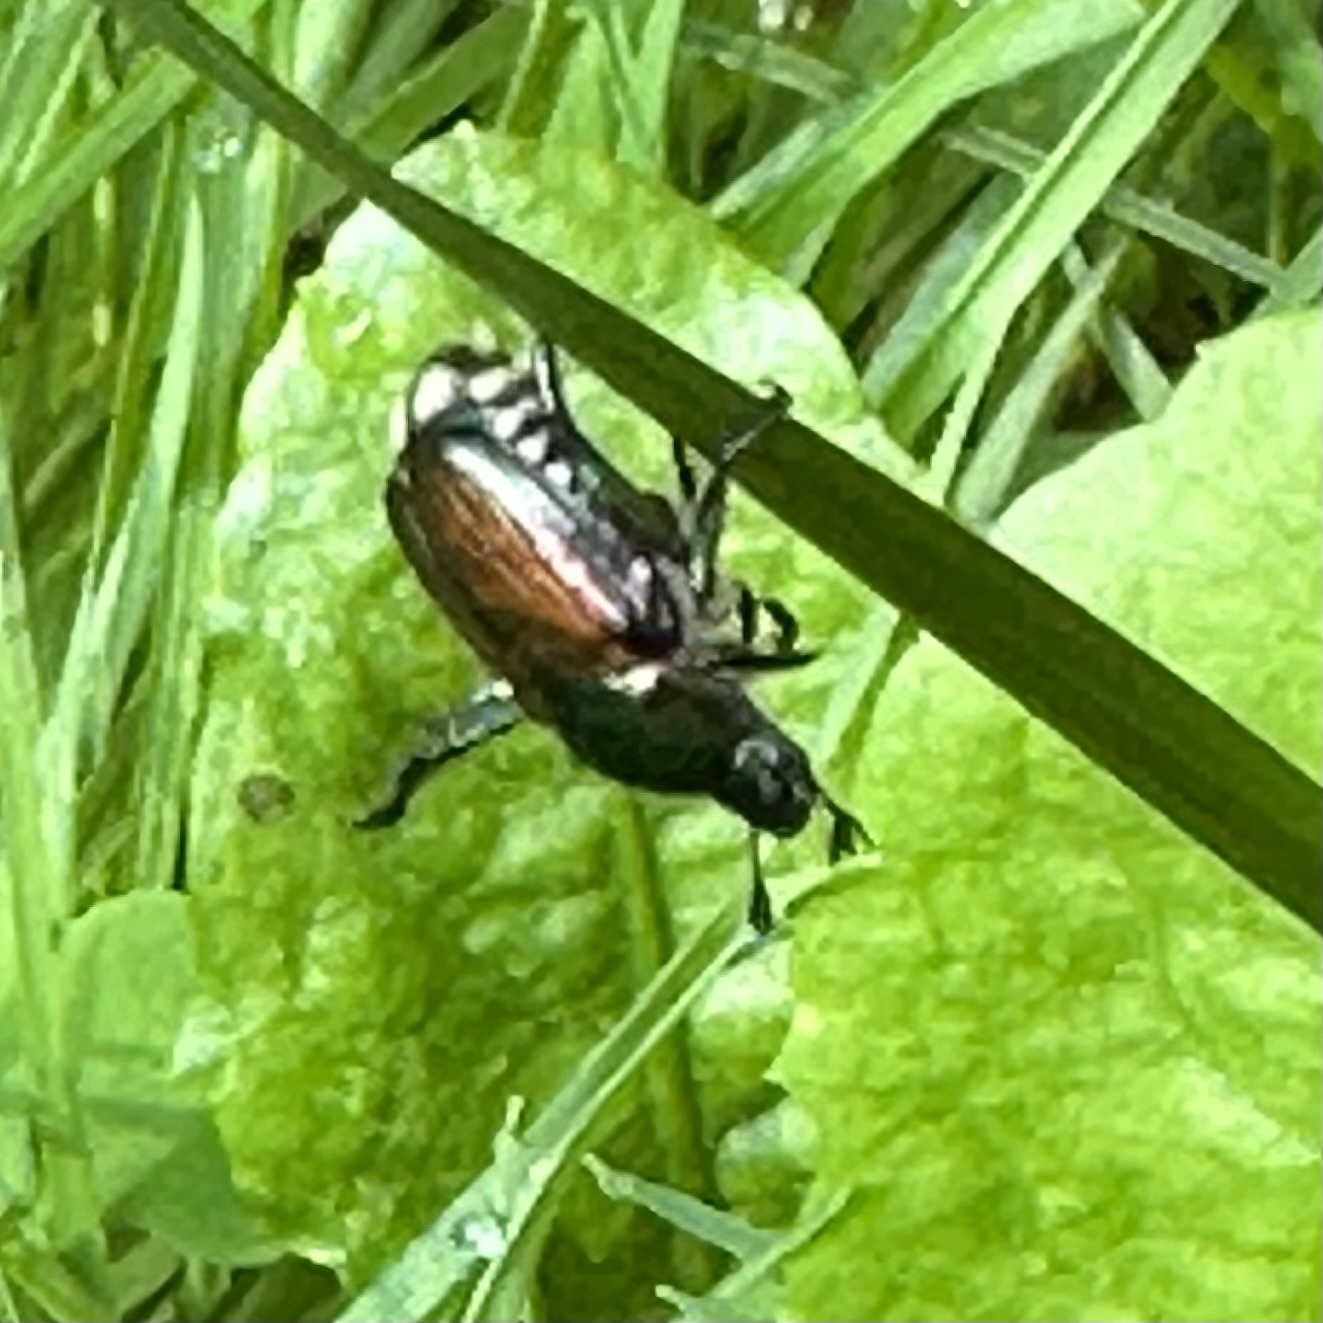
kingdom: Animalia
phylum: Arthropoda
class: Insecta
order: Coleoptera
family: Scarabaeidae
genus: Popillia
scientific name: Popillia japonica
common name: Japanese beetle
